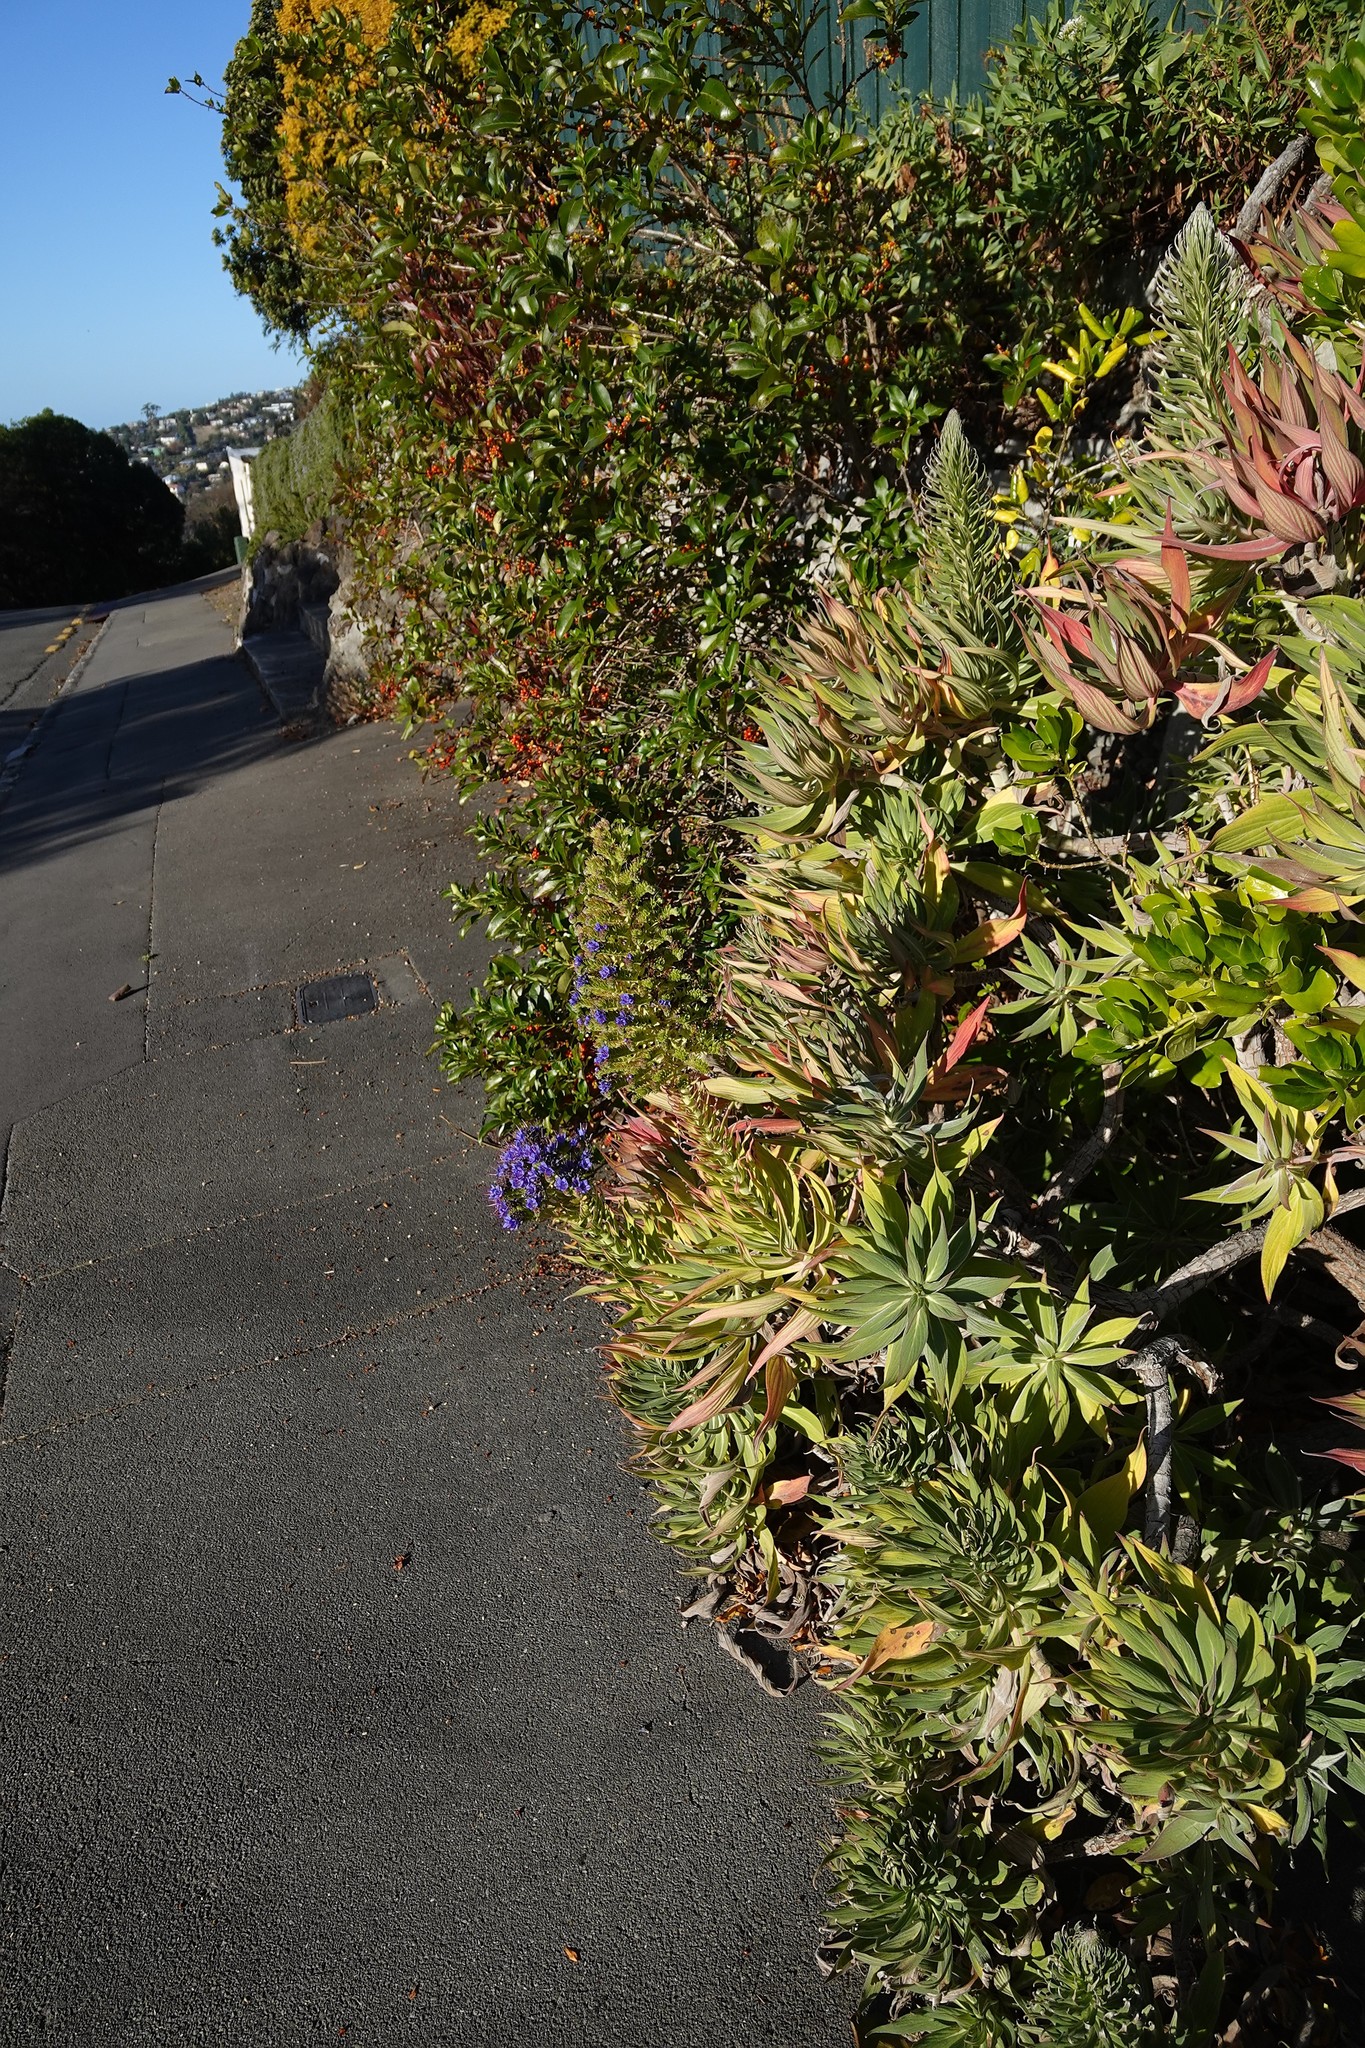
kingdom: Plantae
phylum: Tracheophyta
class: Magnoliopsida
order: Boraginales
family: Boraginaceae
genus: Echium
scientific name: Echium candicans
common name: Pride of madeira
